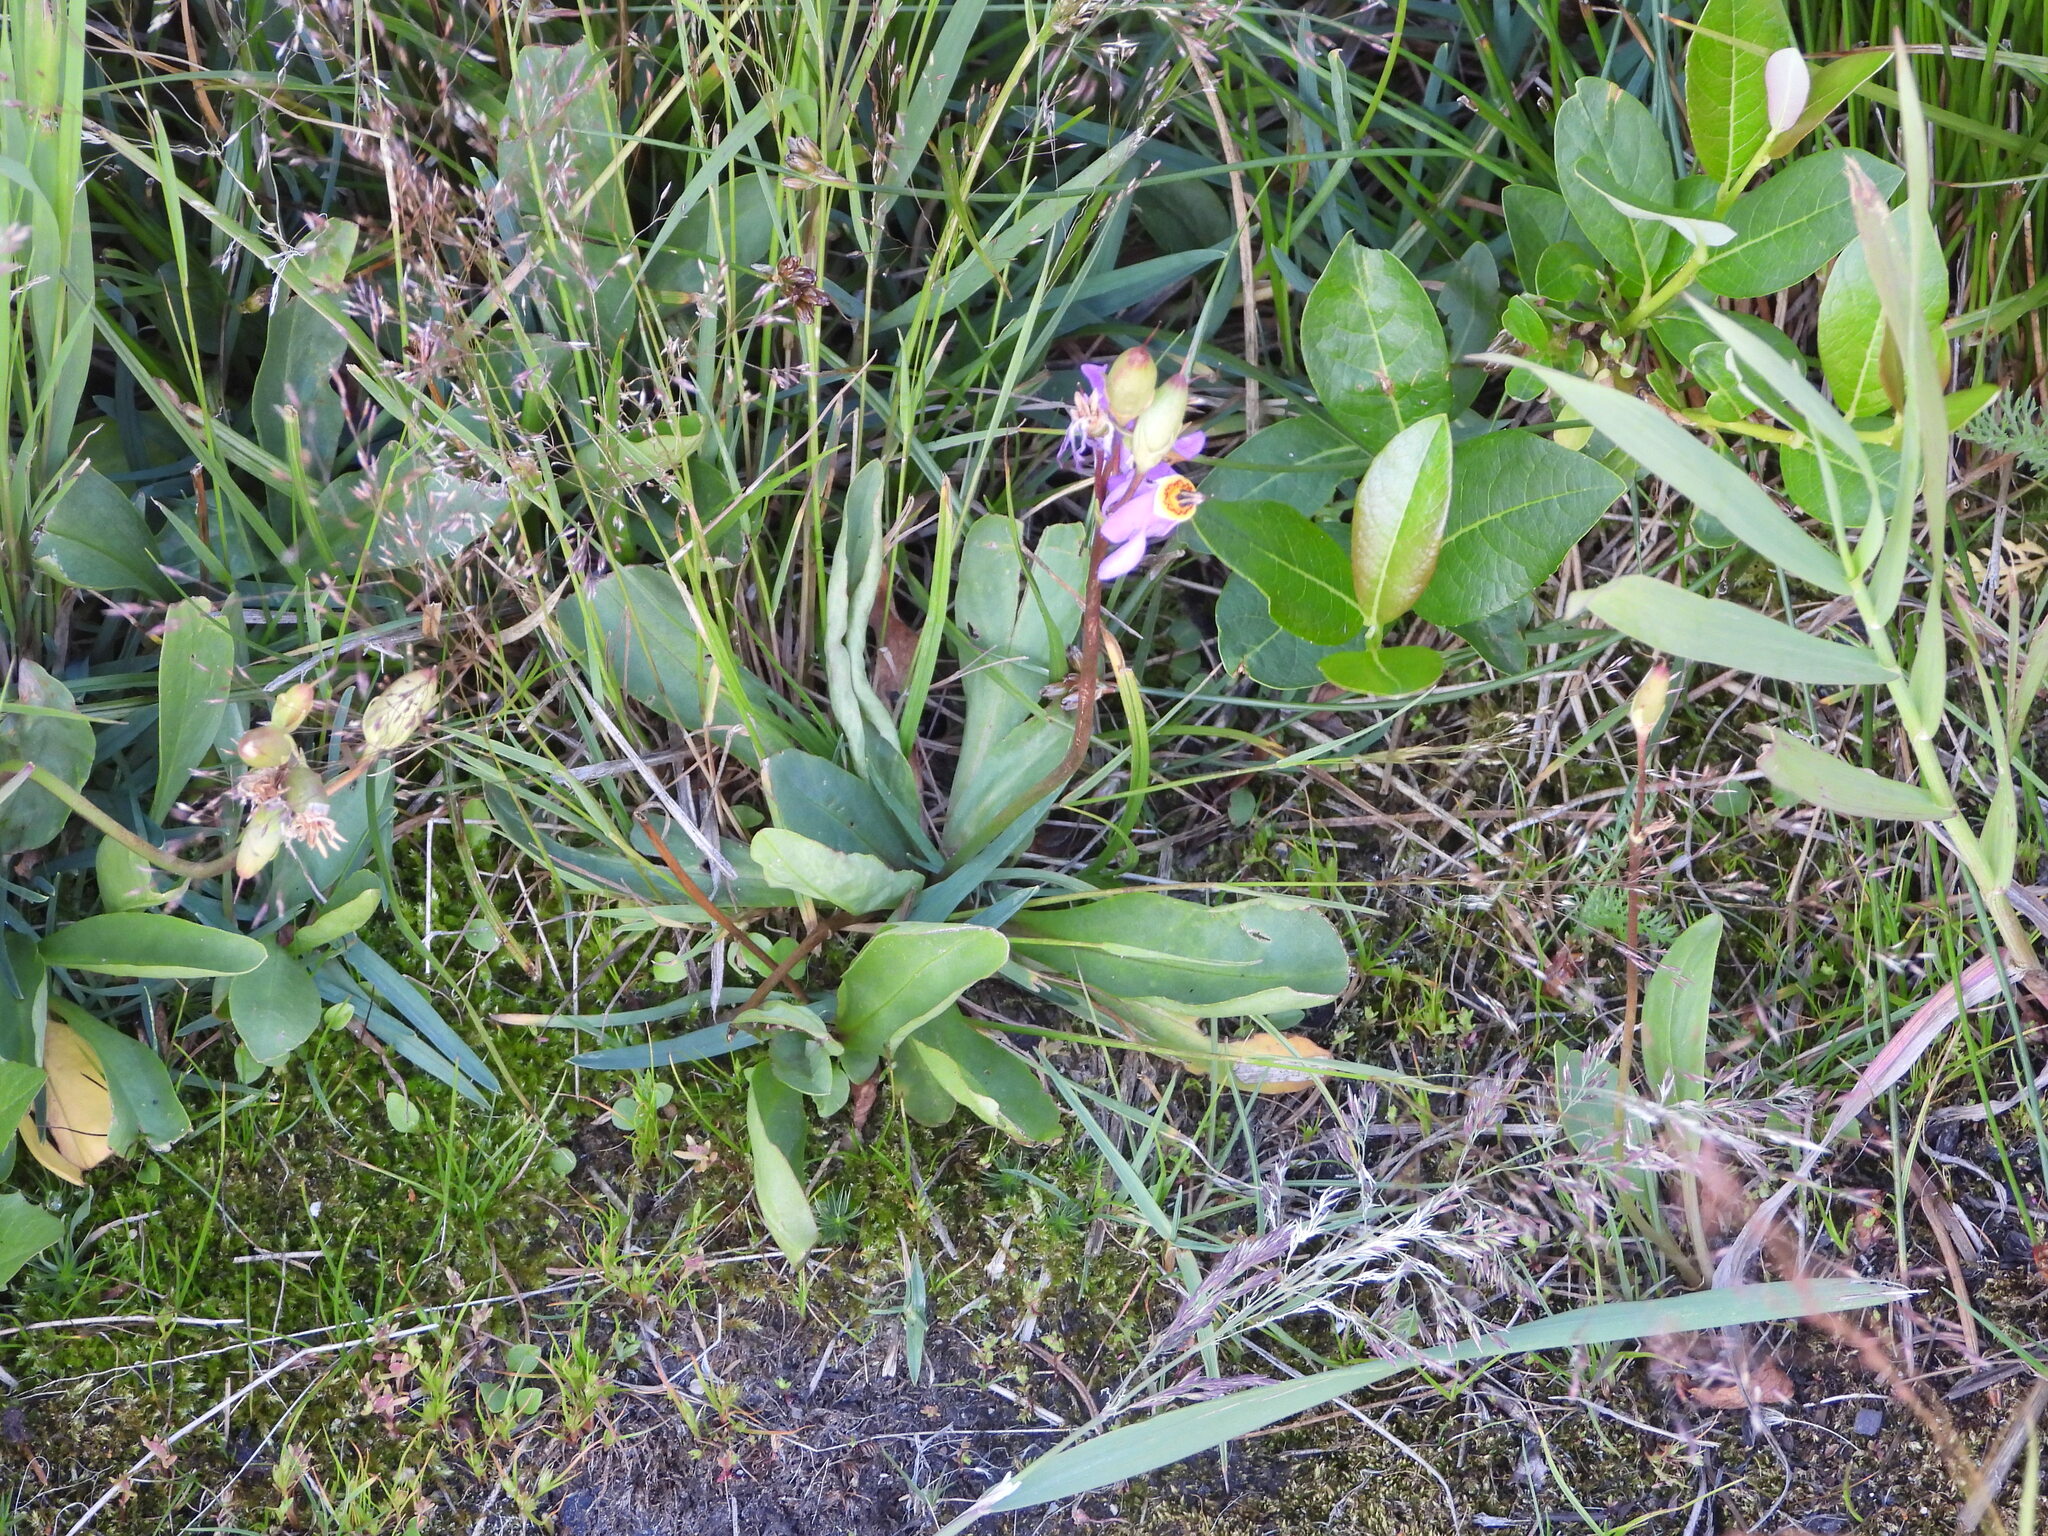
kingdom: Plantae
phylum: Tracheophyta
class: Magnoliopsida
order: Ericales
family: Primulaceae
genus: Dodecatheon
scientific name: Dodecatheon pulchellum
